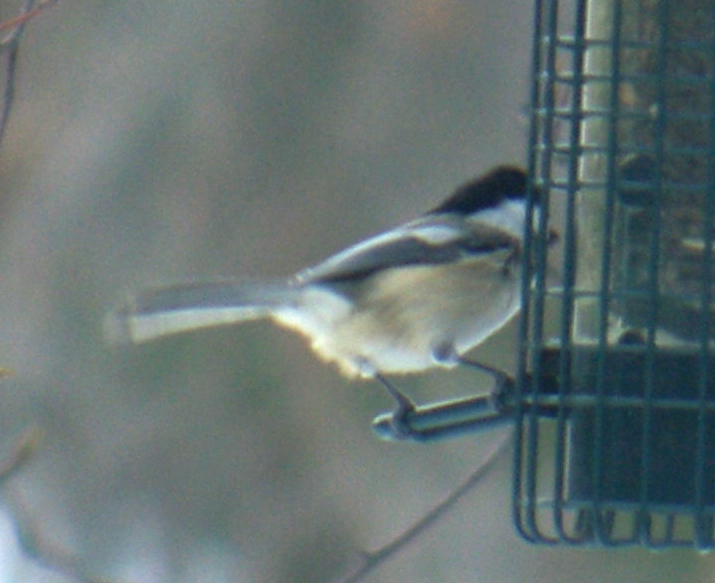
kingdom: Animalia
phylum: Chordata
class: Aves
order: Passeriformes
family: Paridae
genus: Poecile
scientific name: Poecile atricapillus
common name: Black-capped chickadee
